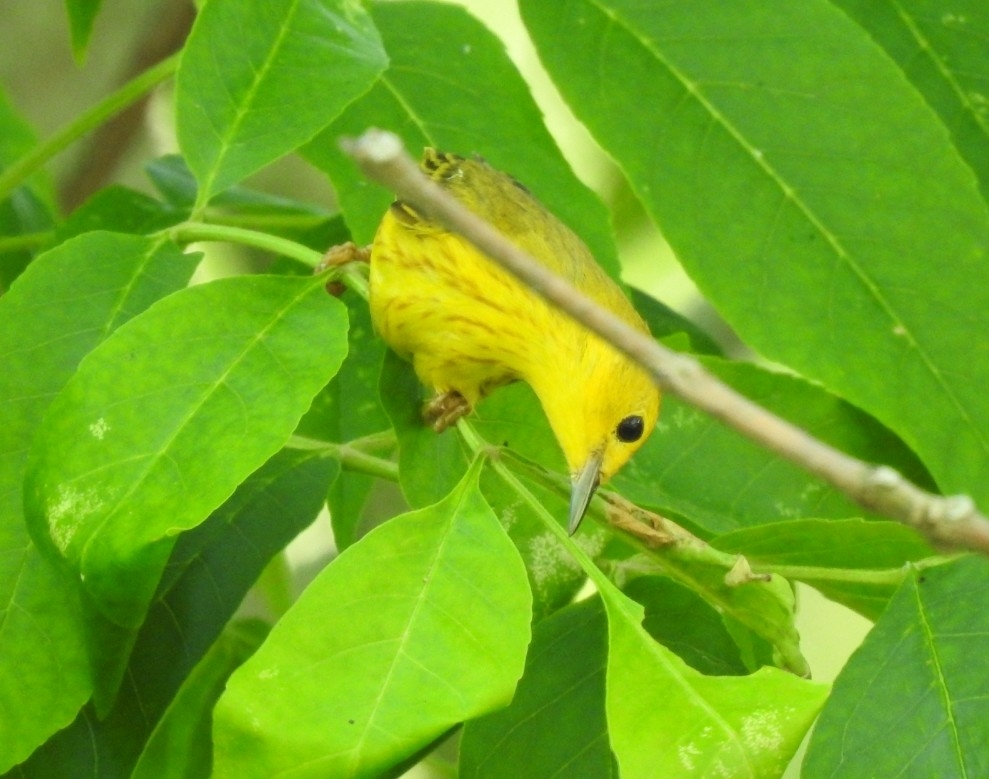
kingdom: Animalia
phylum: Chordata
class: Aves
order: Passeriformes
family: Parulidae
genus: Setophaga
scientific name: Setophaga petechia
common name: Yellow warbler
